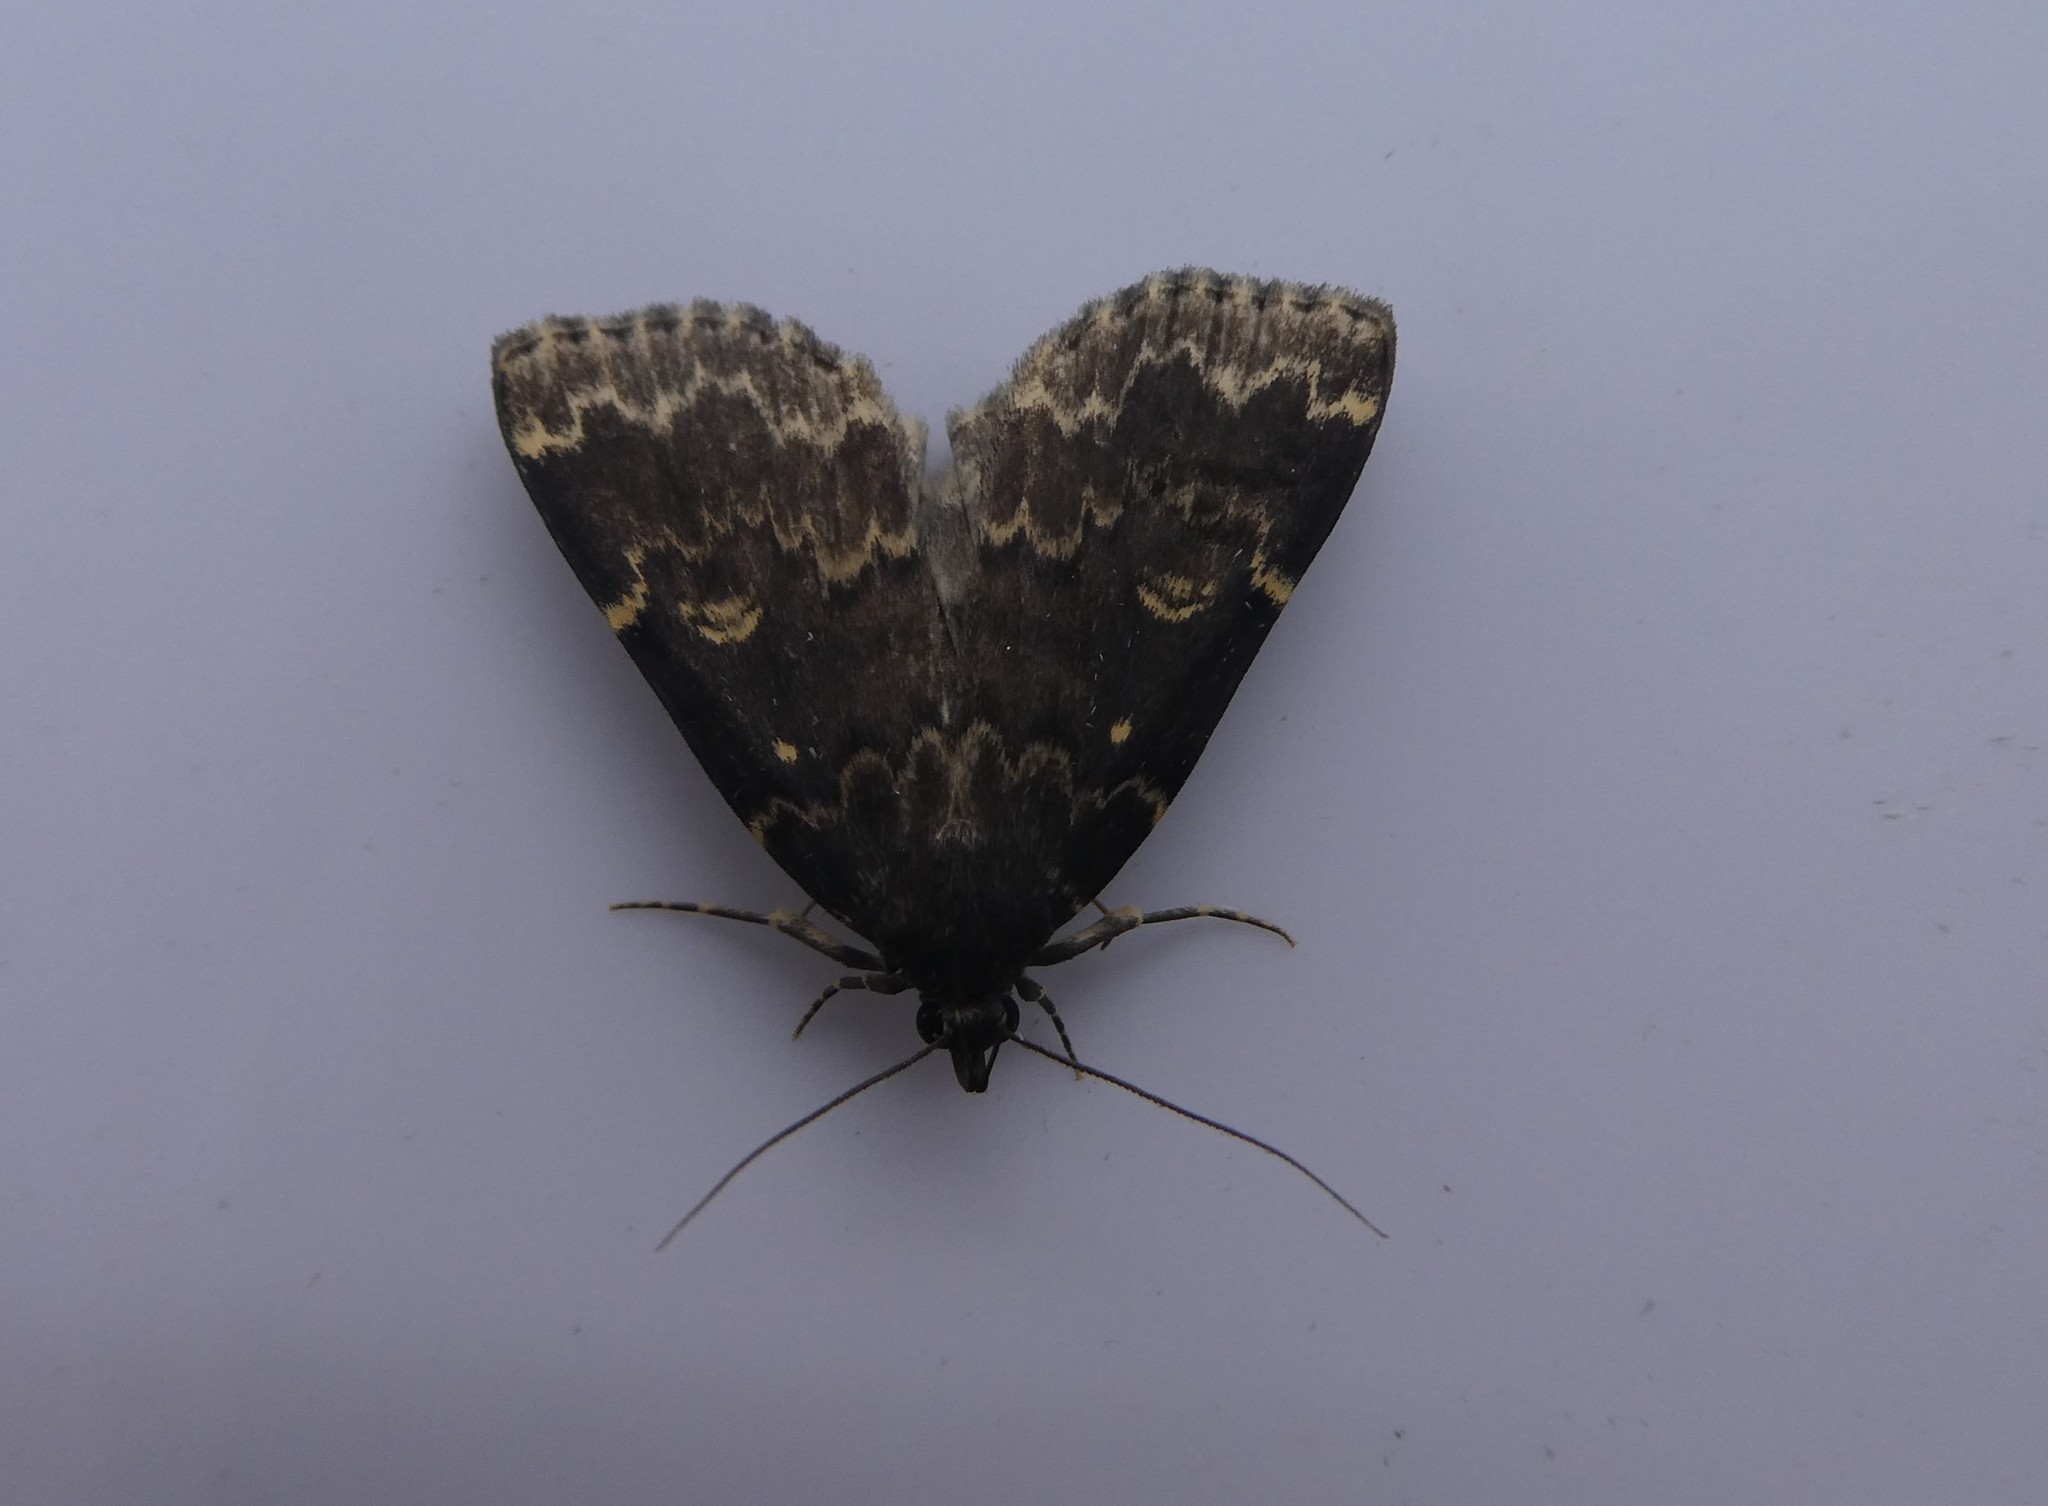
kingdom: Animalia
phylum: Arthropoda
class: Insecta
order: Lepidoptera
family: Erebidae
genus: Idia
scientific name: Idia lubricalis
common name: Twin-striped tabby
